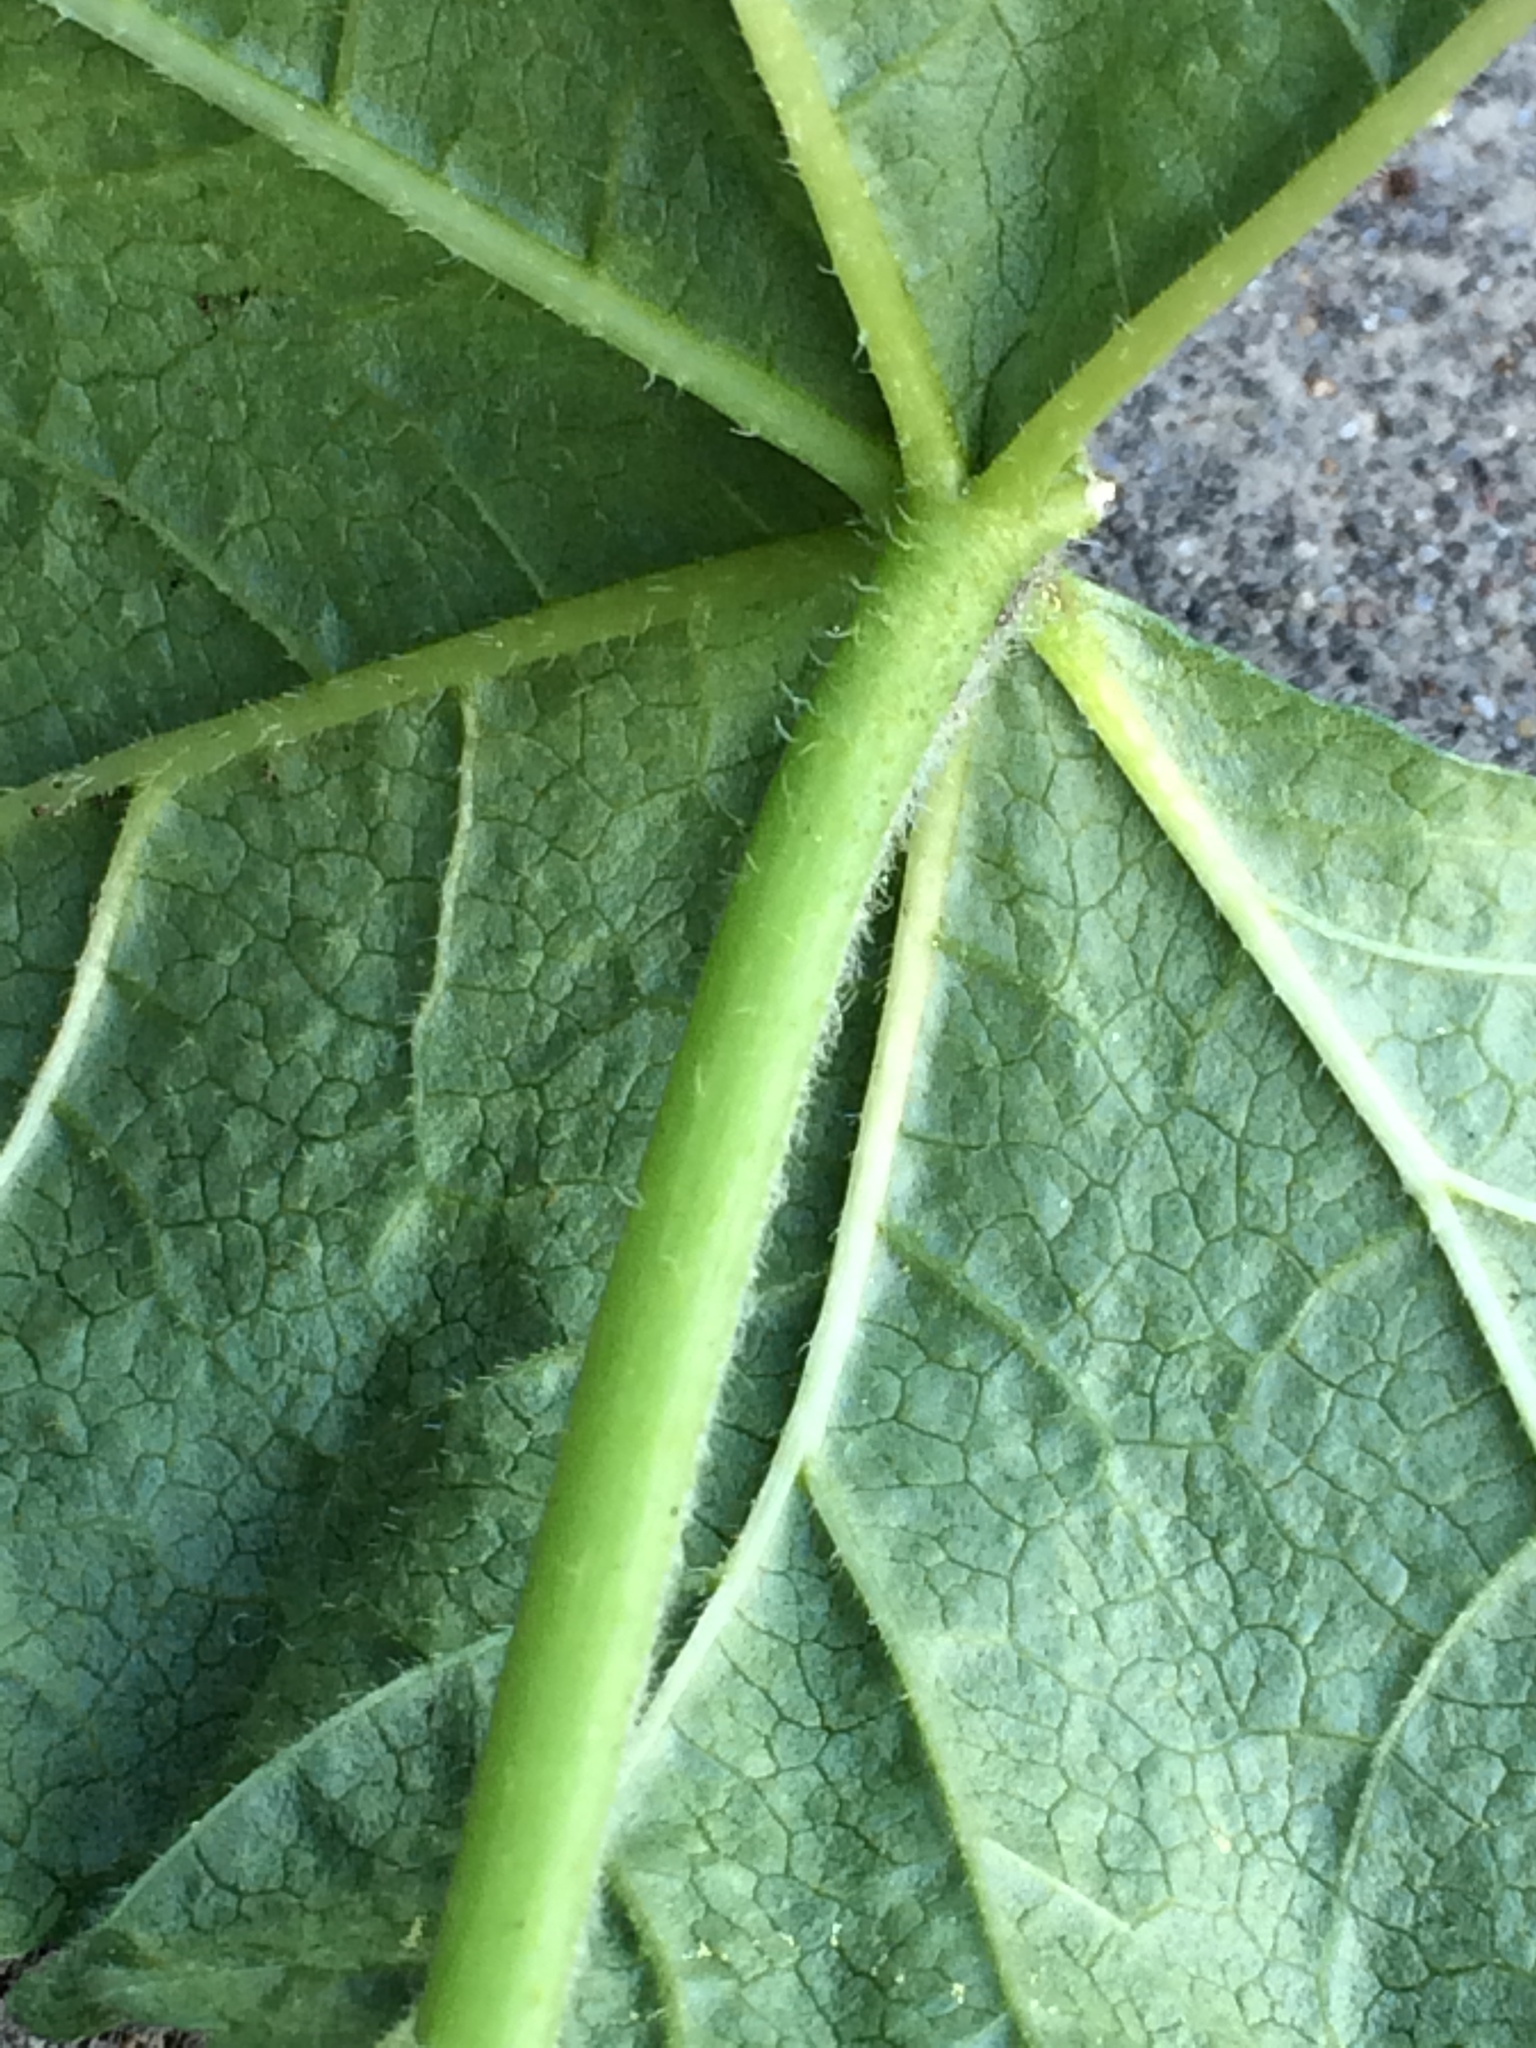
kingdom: Plantae
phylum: Tracheophyta
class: Magnoliopsida
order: Malvales
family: Malvaceae
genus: Malva
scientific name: Malva parviflora
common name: Least mallow
